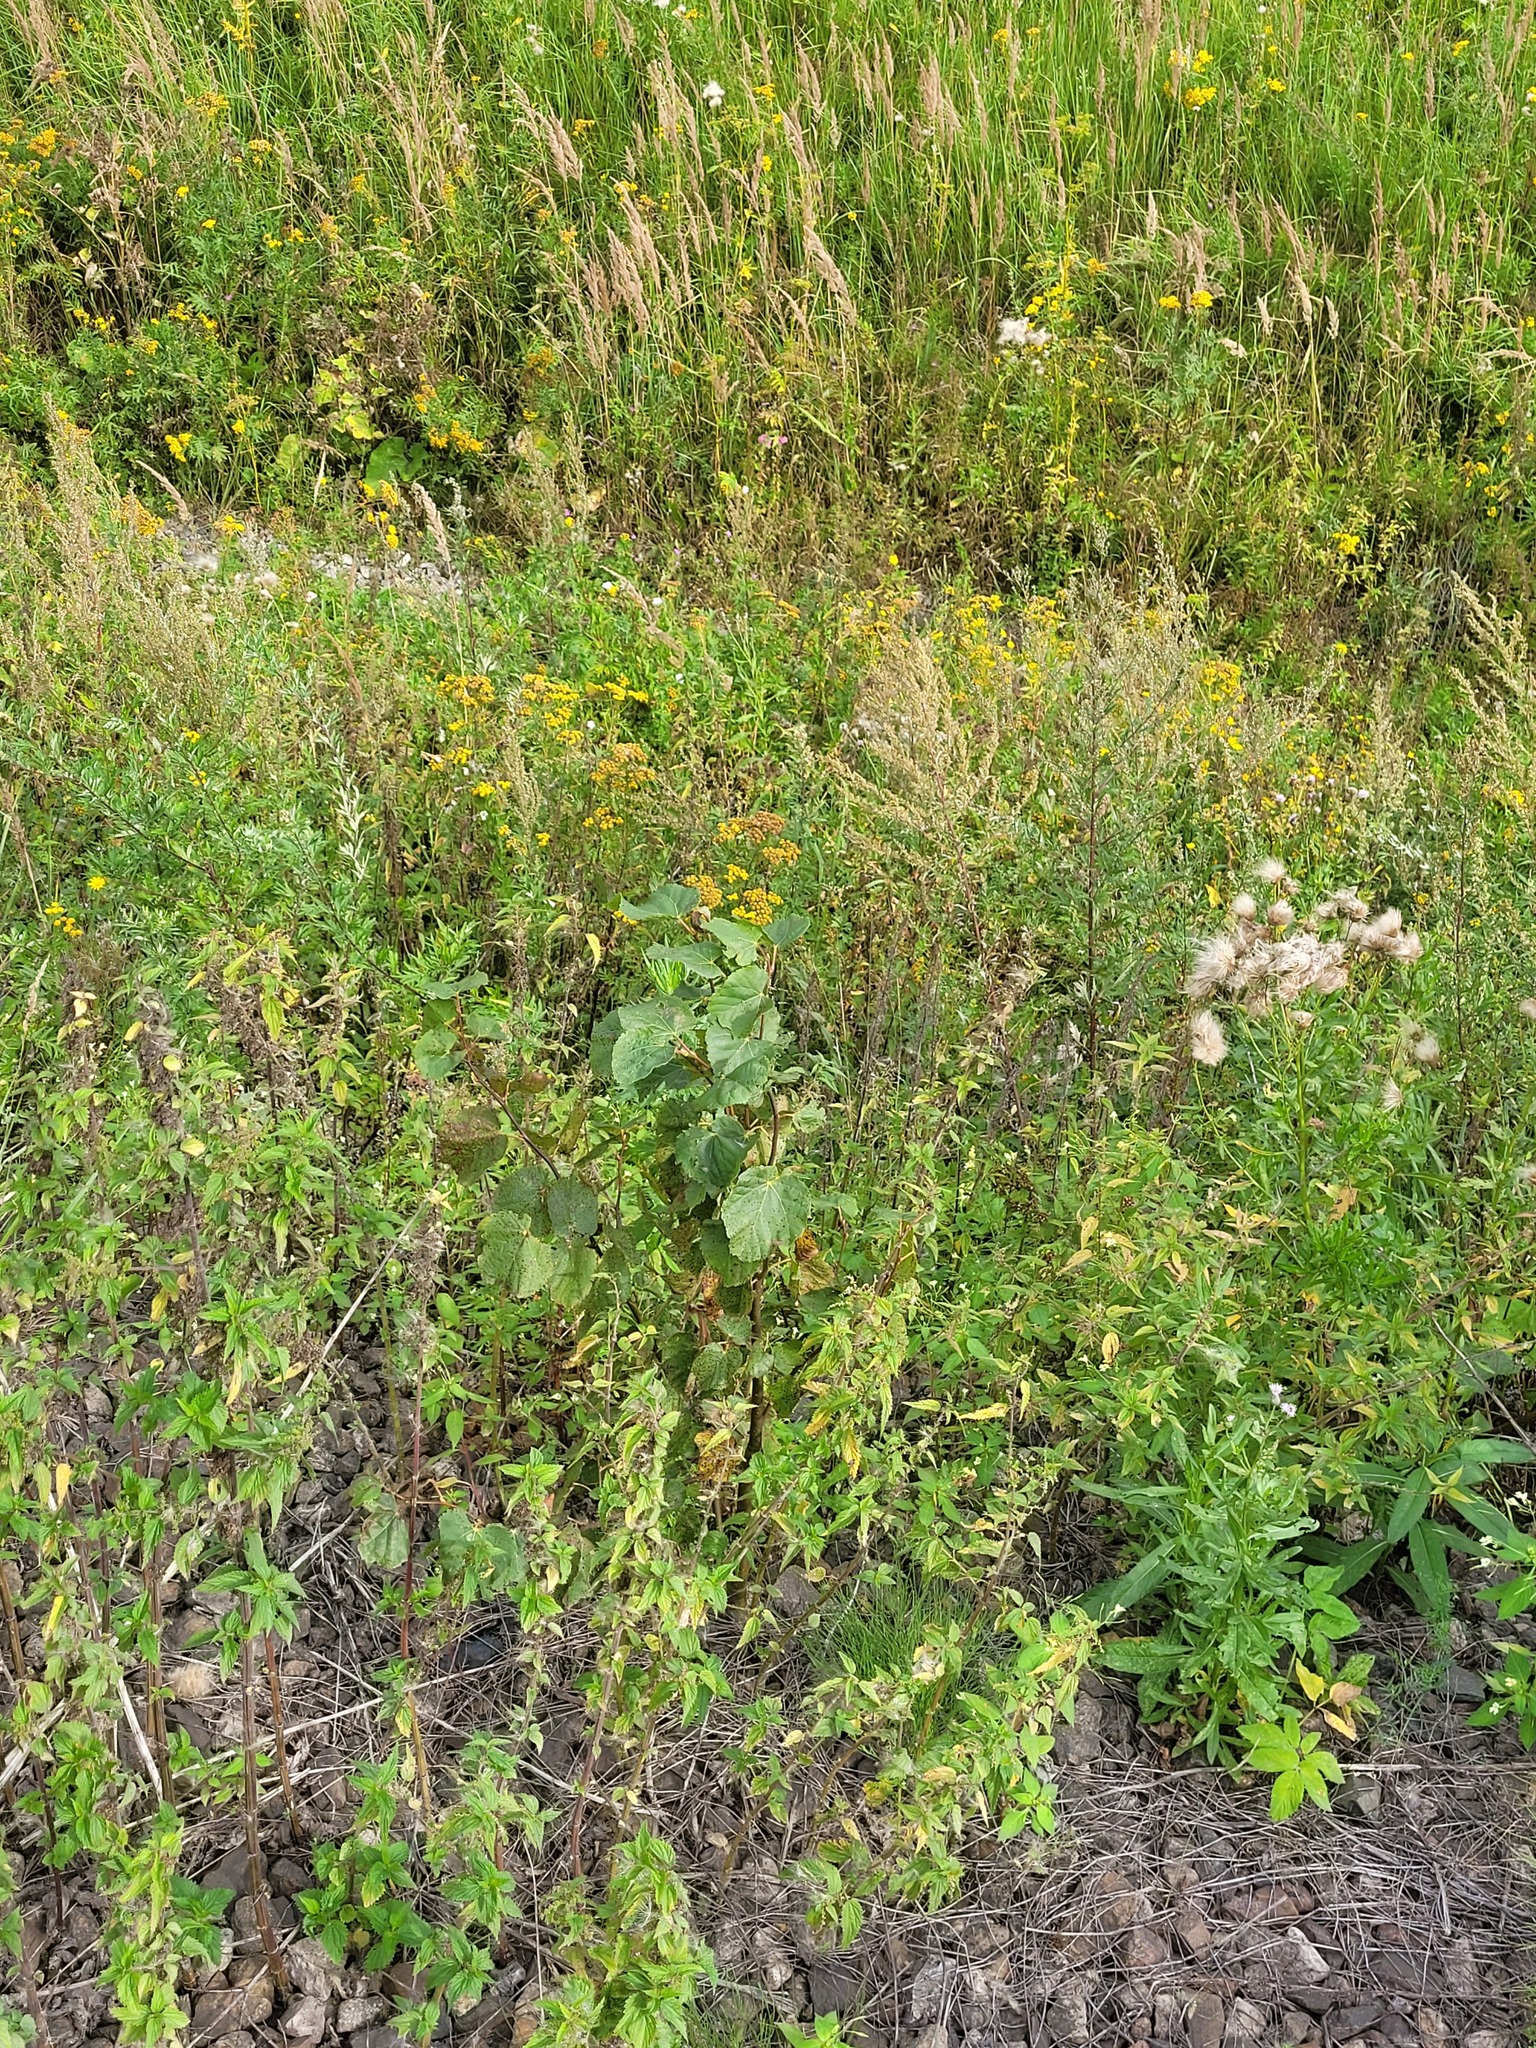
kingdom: Plantae
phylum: Tracheophyta
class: Magnoliopsida
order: Malvales
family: Malvaceae
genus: Tilia
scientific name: Tilia cordata
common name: Small-leaved lime
